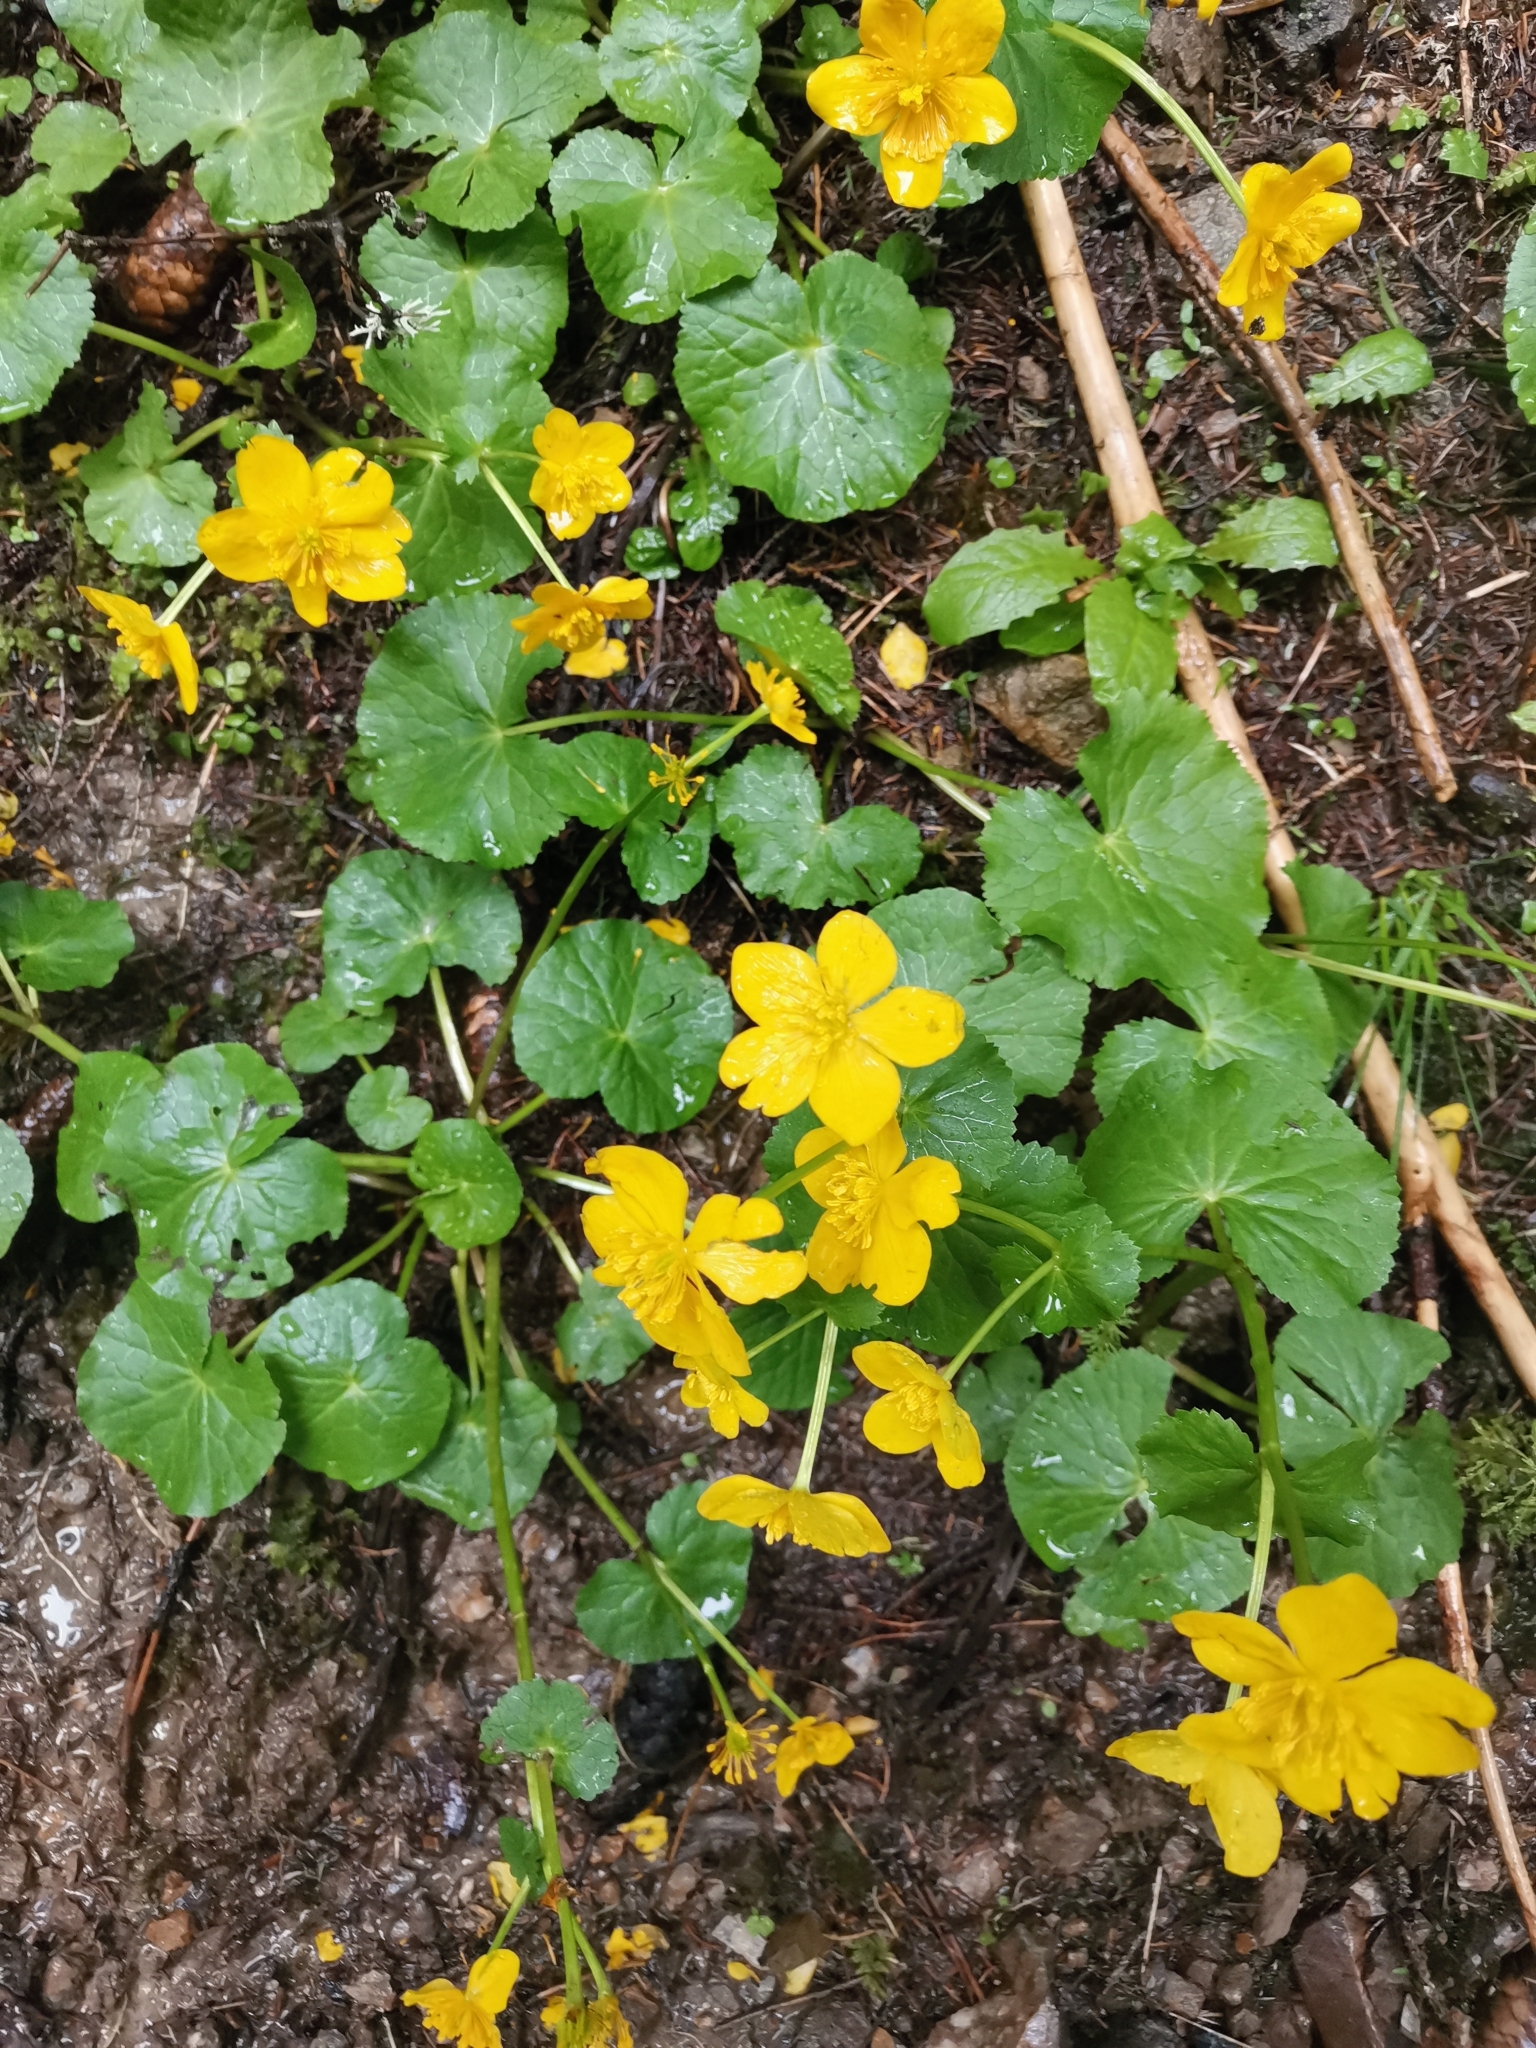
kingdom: Plantae
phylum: Tracheophyta
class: Magnoliopsida
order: Ranunculales
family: Ranunculaceae
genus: Caltha
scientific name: Caltha palustris
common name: Marsh marigold
